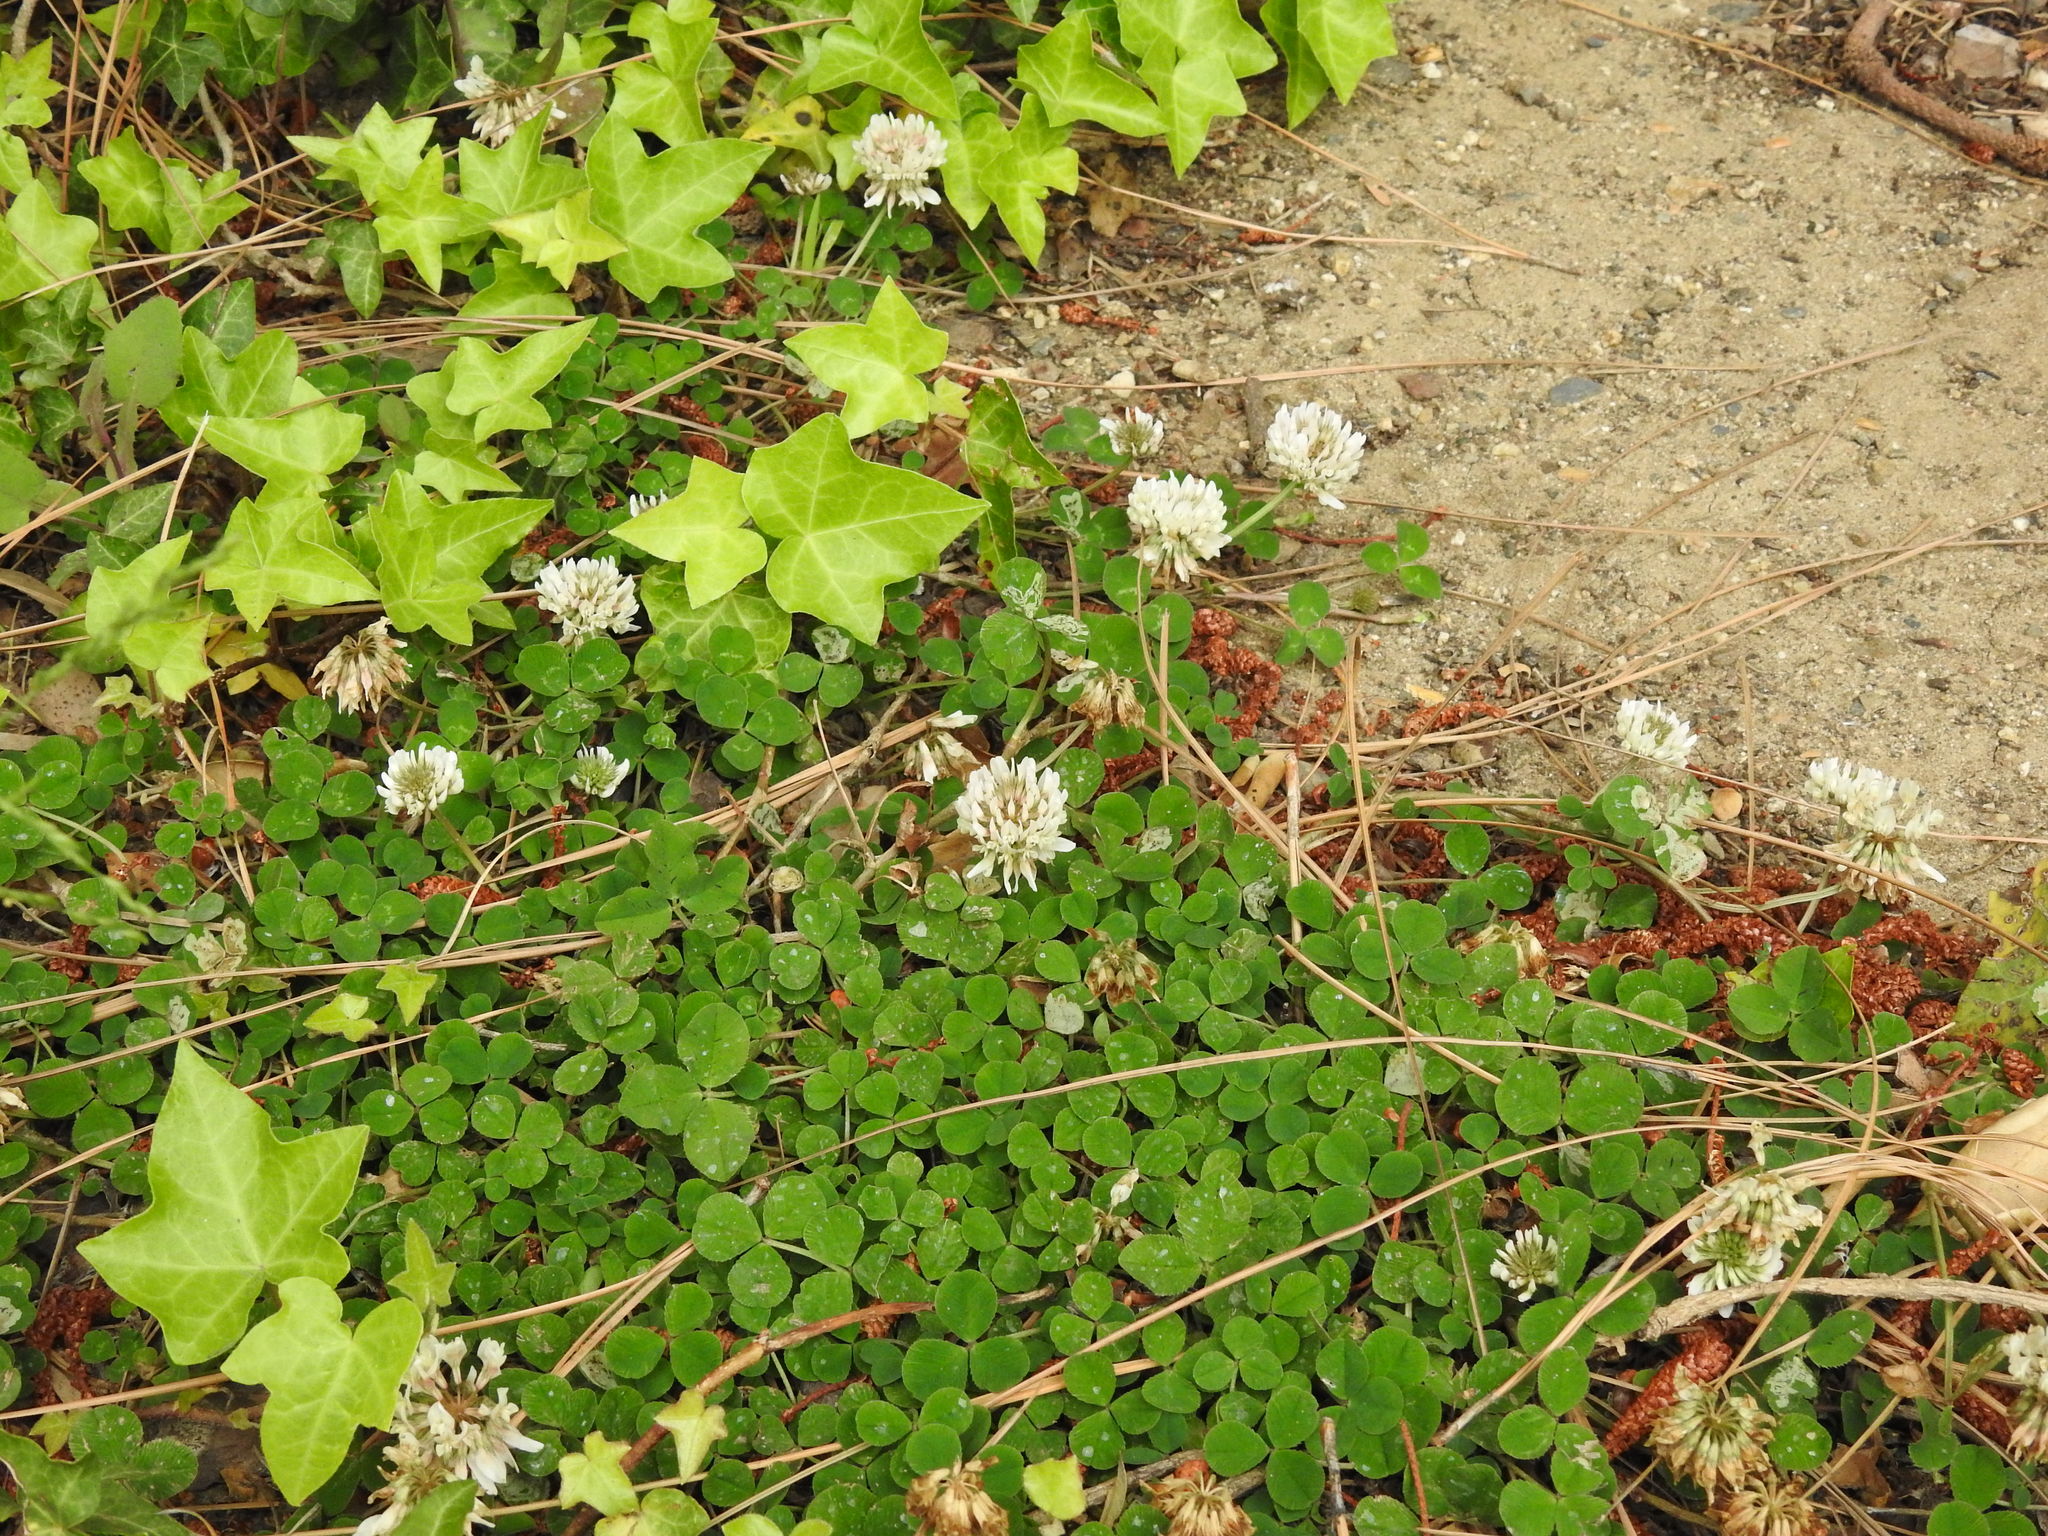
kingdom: Plantae
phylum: Tracheophyta
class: Magnoliopsida
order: Fabales
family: Fabaceae
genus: Trifolium
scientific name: Trifolium repens
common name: White clover
